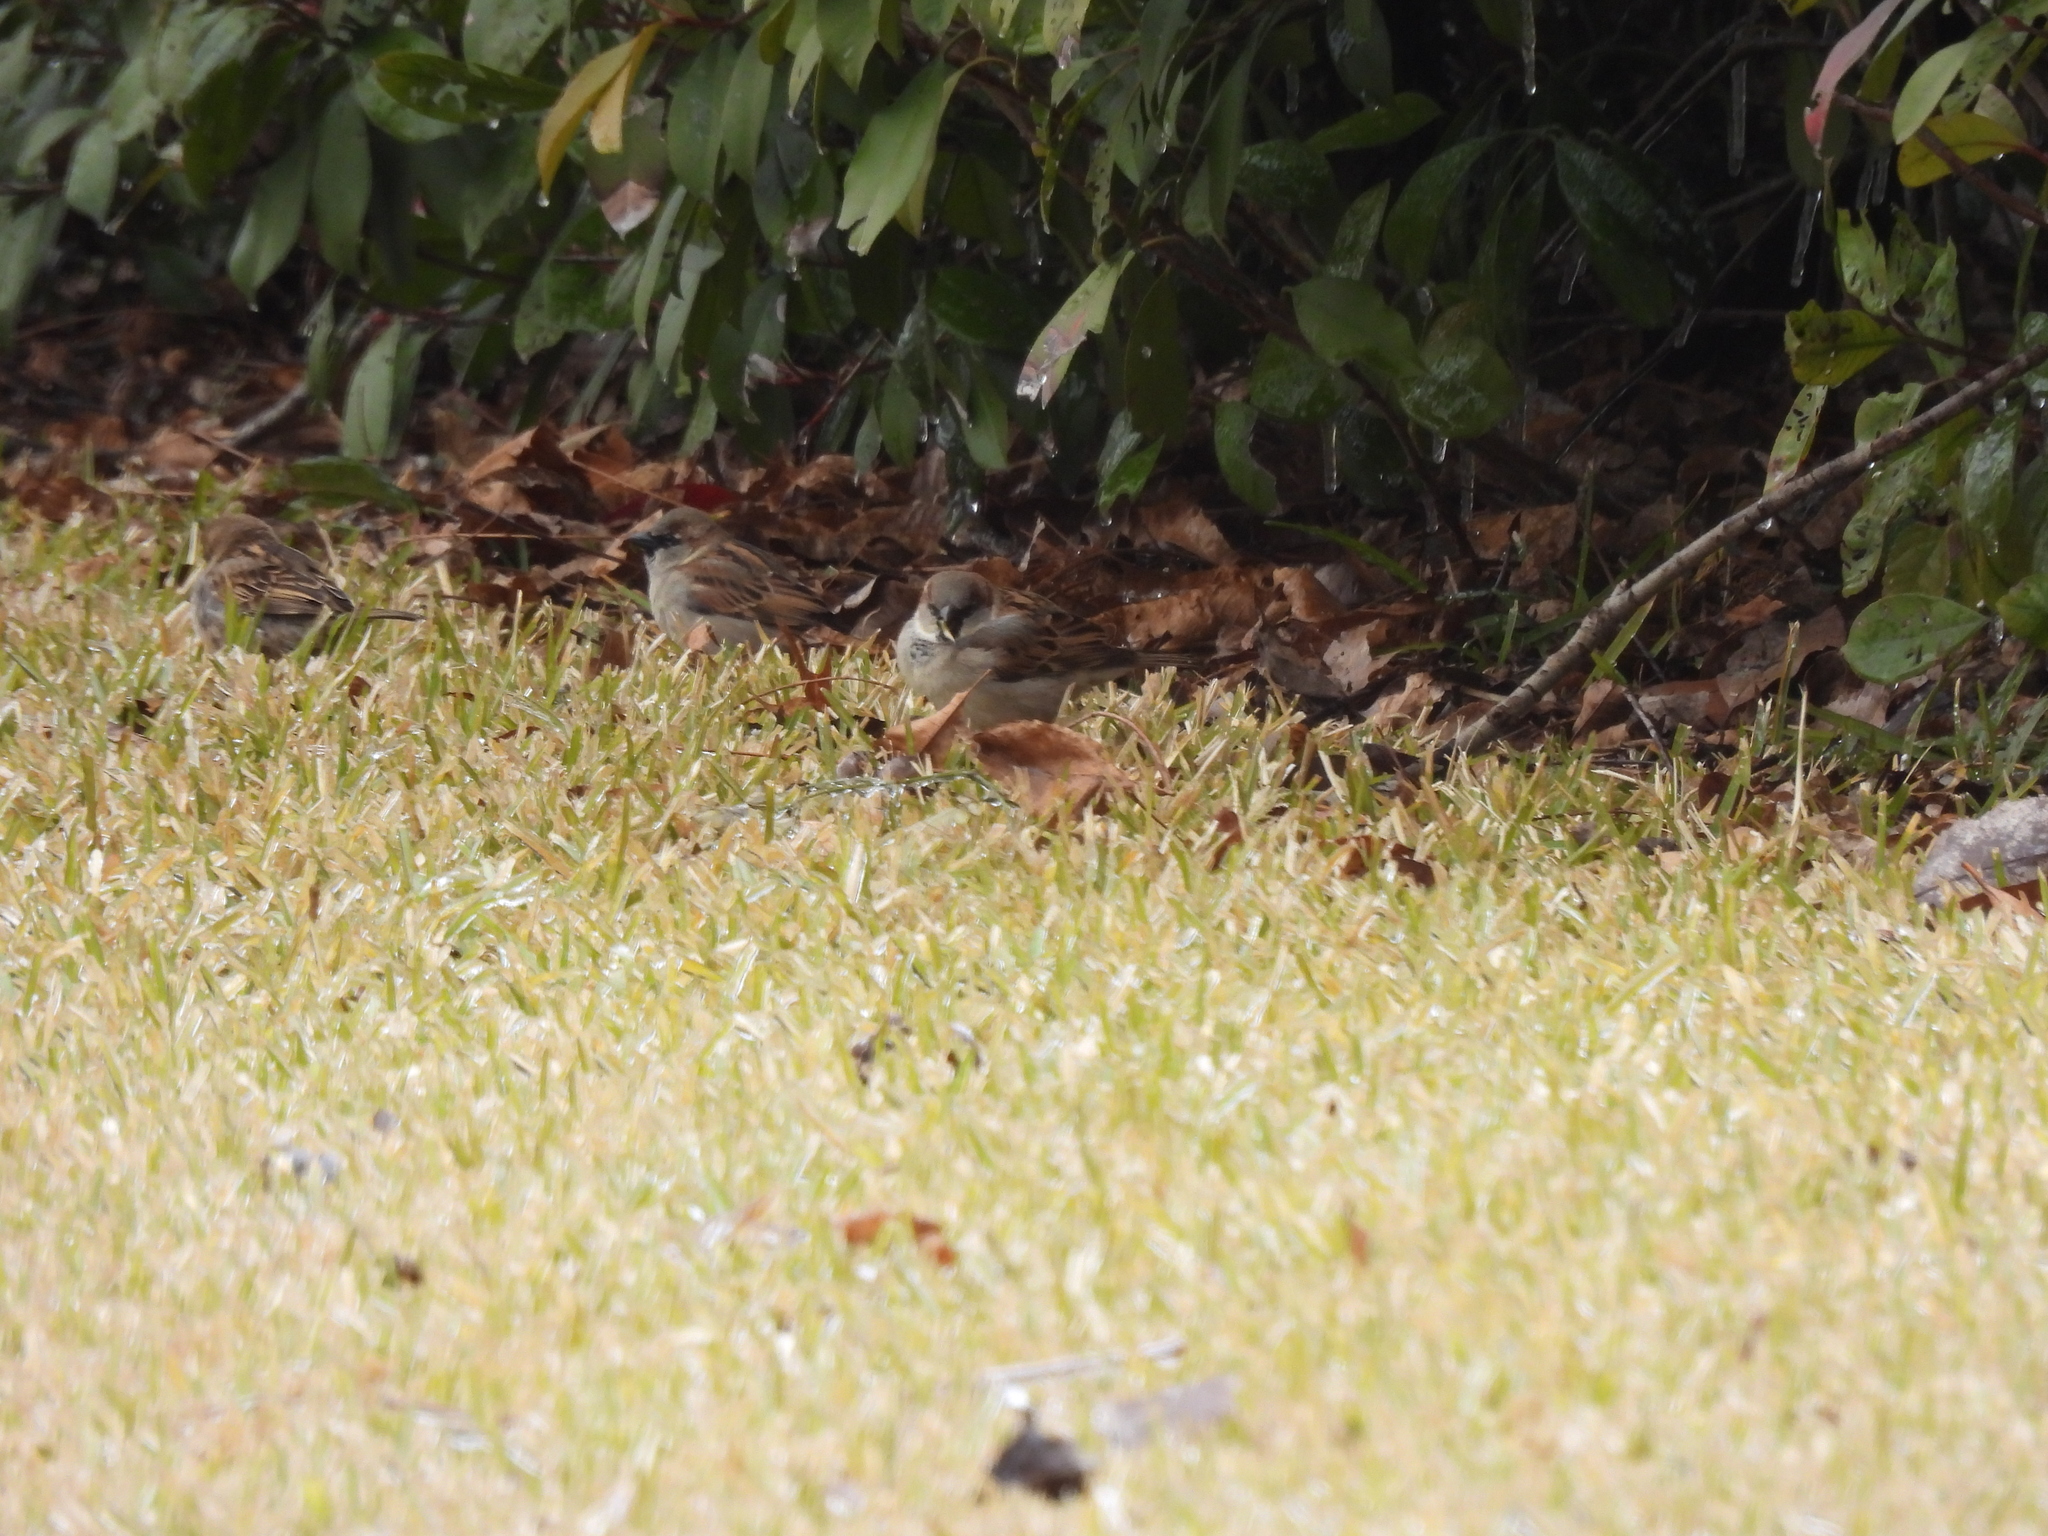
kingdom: Animalia
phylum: Chordata
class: Aves
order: Passeriformes
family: Passeridae
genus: Passer
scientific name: Passer domesticus
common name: House sparrow
